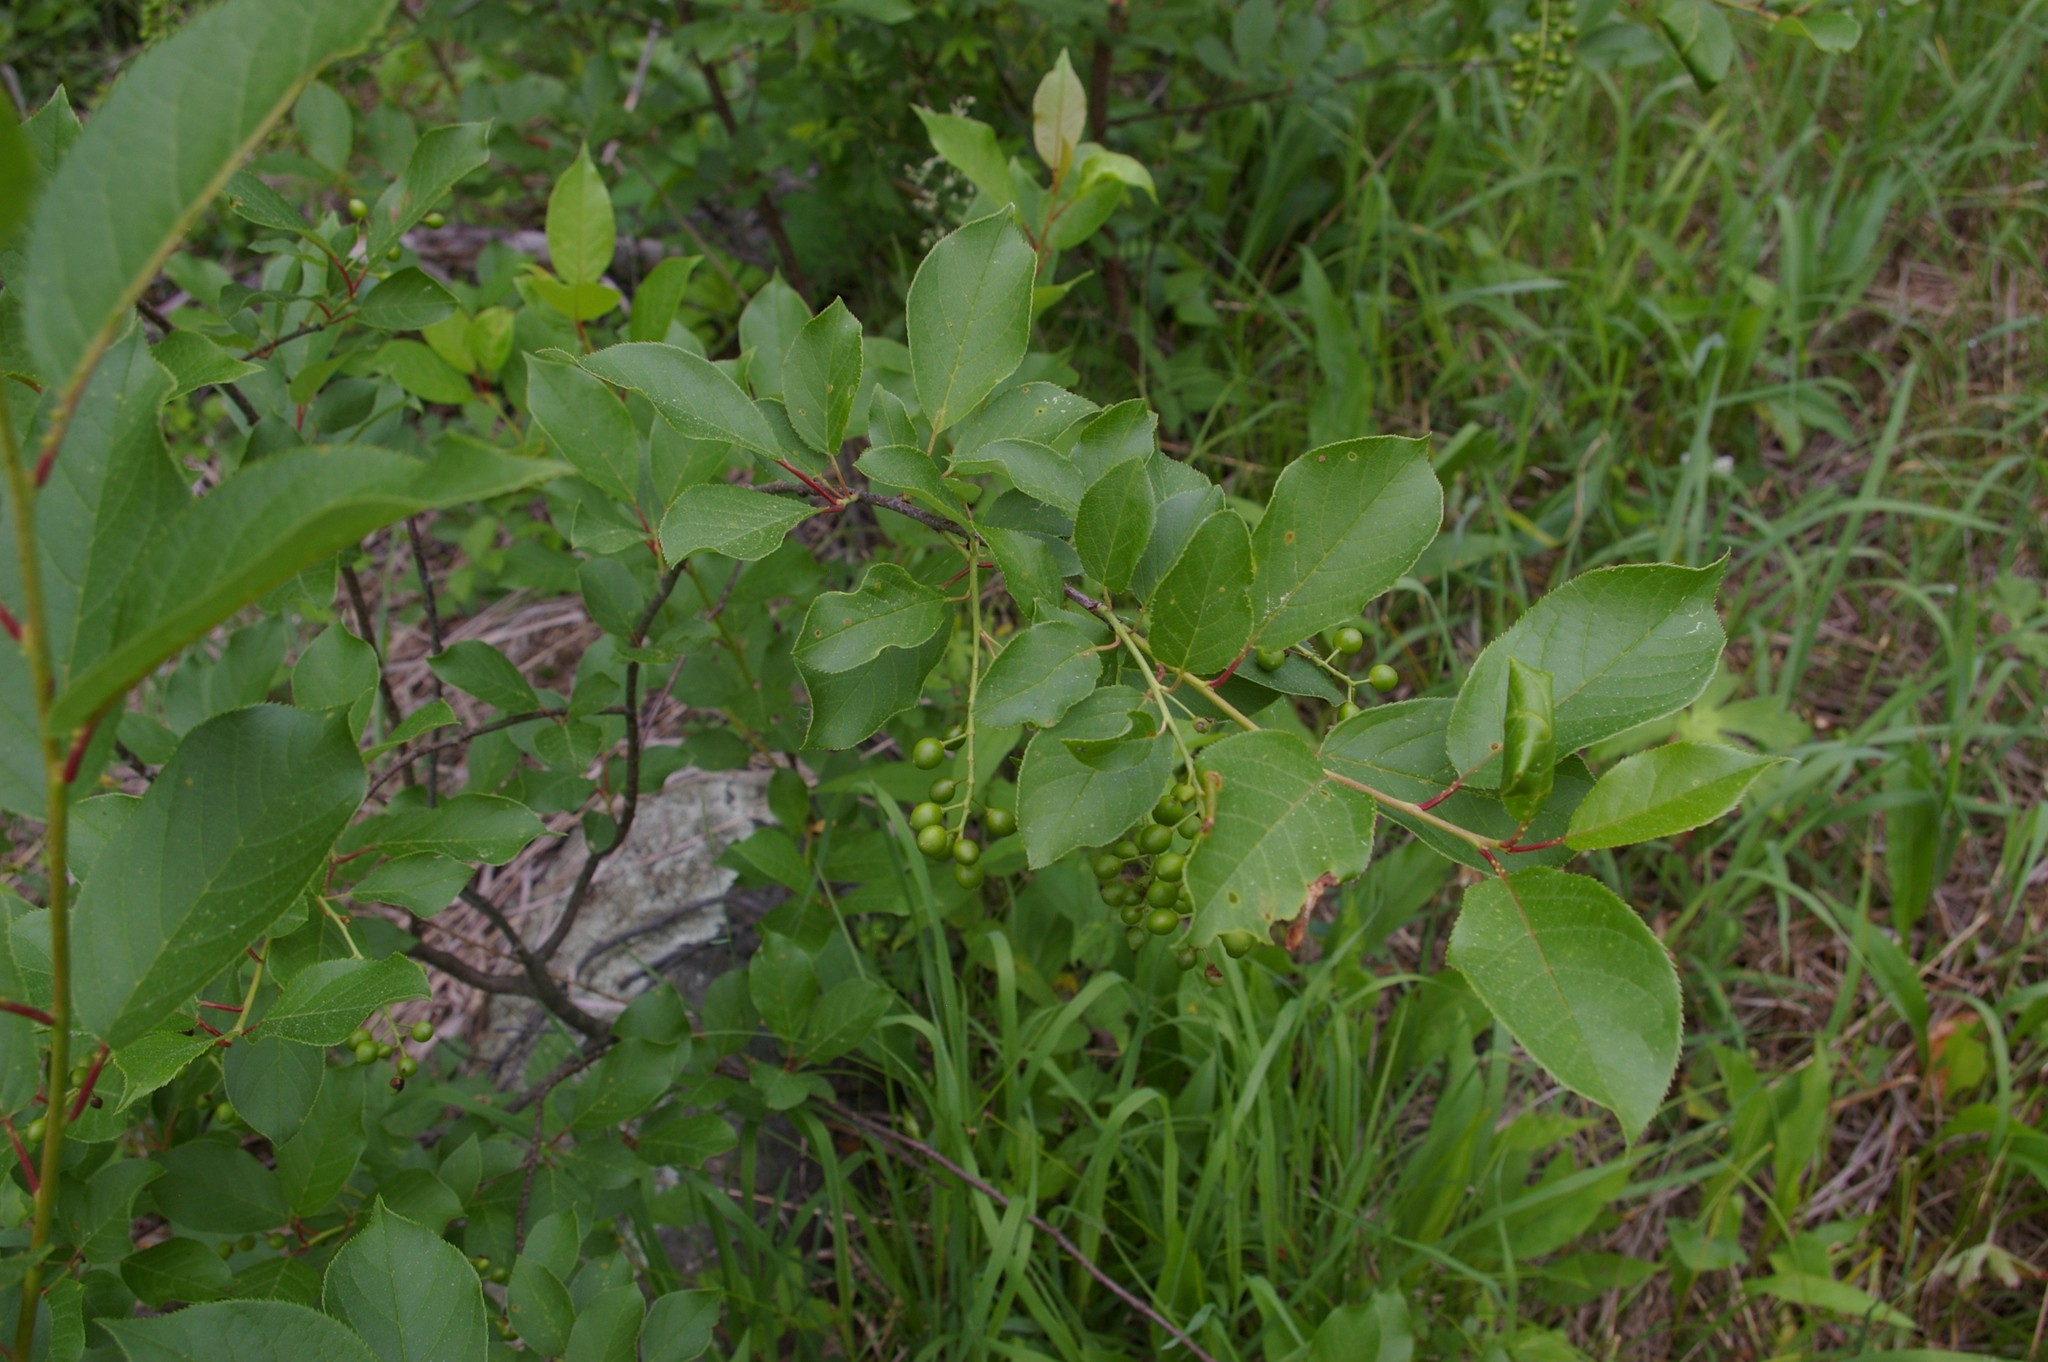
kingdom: Plantae
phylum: Tracheophyta
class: Magnoliopsida
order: Rosales
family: Rosaceae
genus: Prunus
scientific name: Prunus virginiana
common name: Chokecherry
